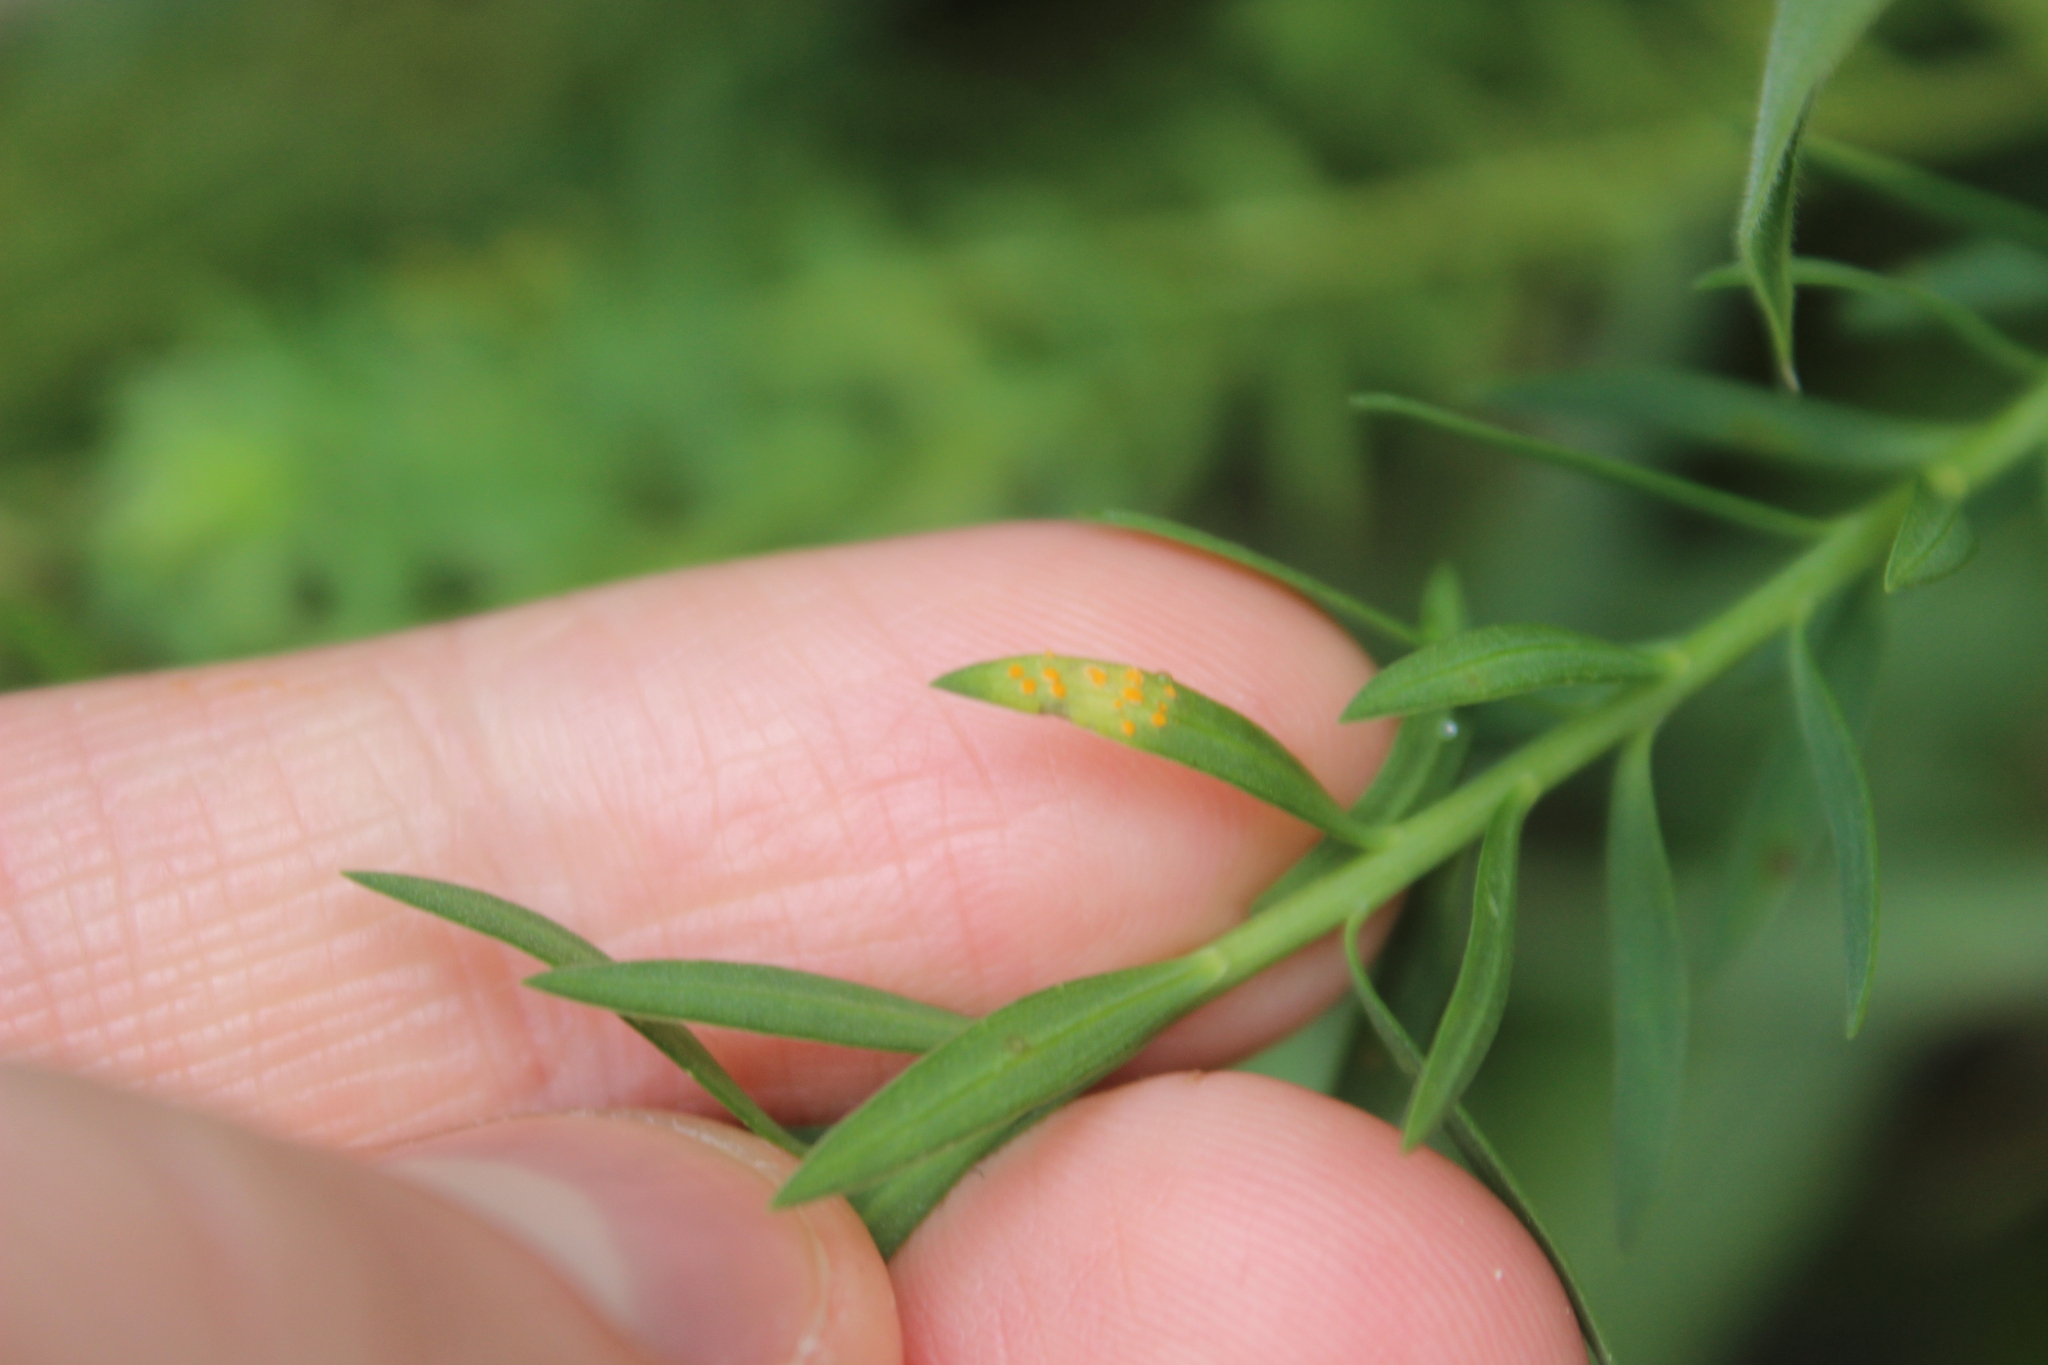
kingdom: Fungi
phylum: Basidiomycota
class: Pucciniomycetes
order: Pucciniales
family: Melampsoraceae
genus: Melampsora
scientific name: Melampsora lini
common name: Flax rust
